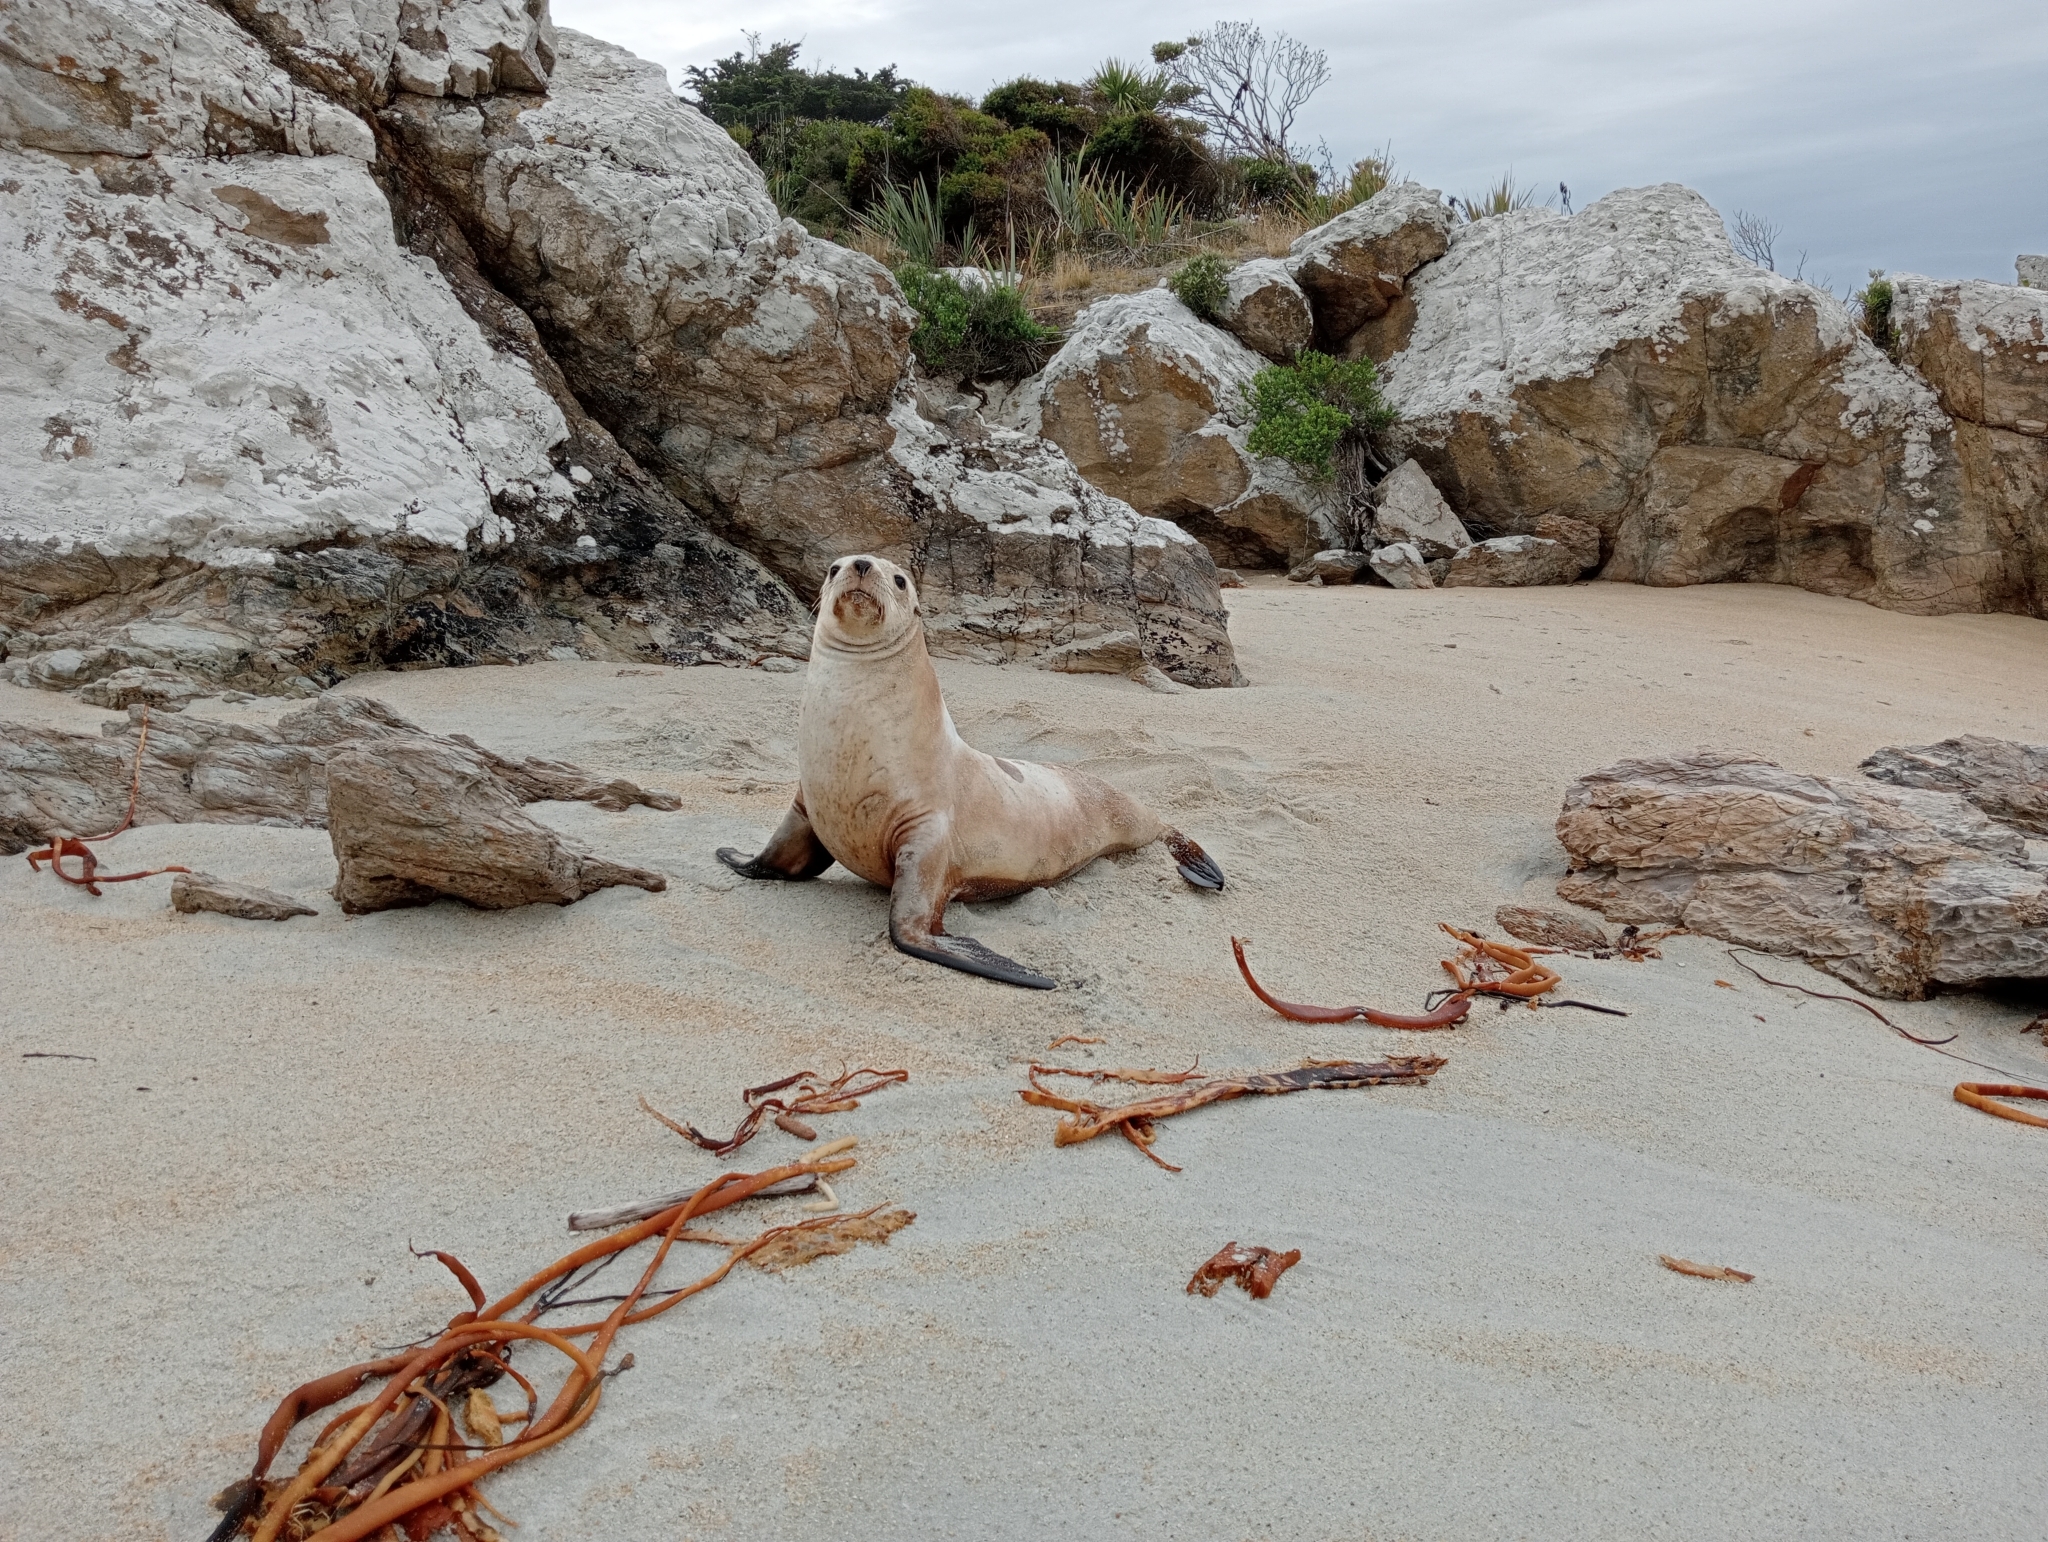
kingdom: Animalia
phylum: Chordata
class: Mammalia
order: Carnivora
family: Otariidae
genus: Phocarctos
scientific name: Phocarctos hookeri
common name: New zealand sea lion
